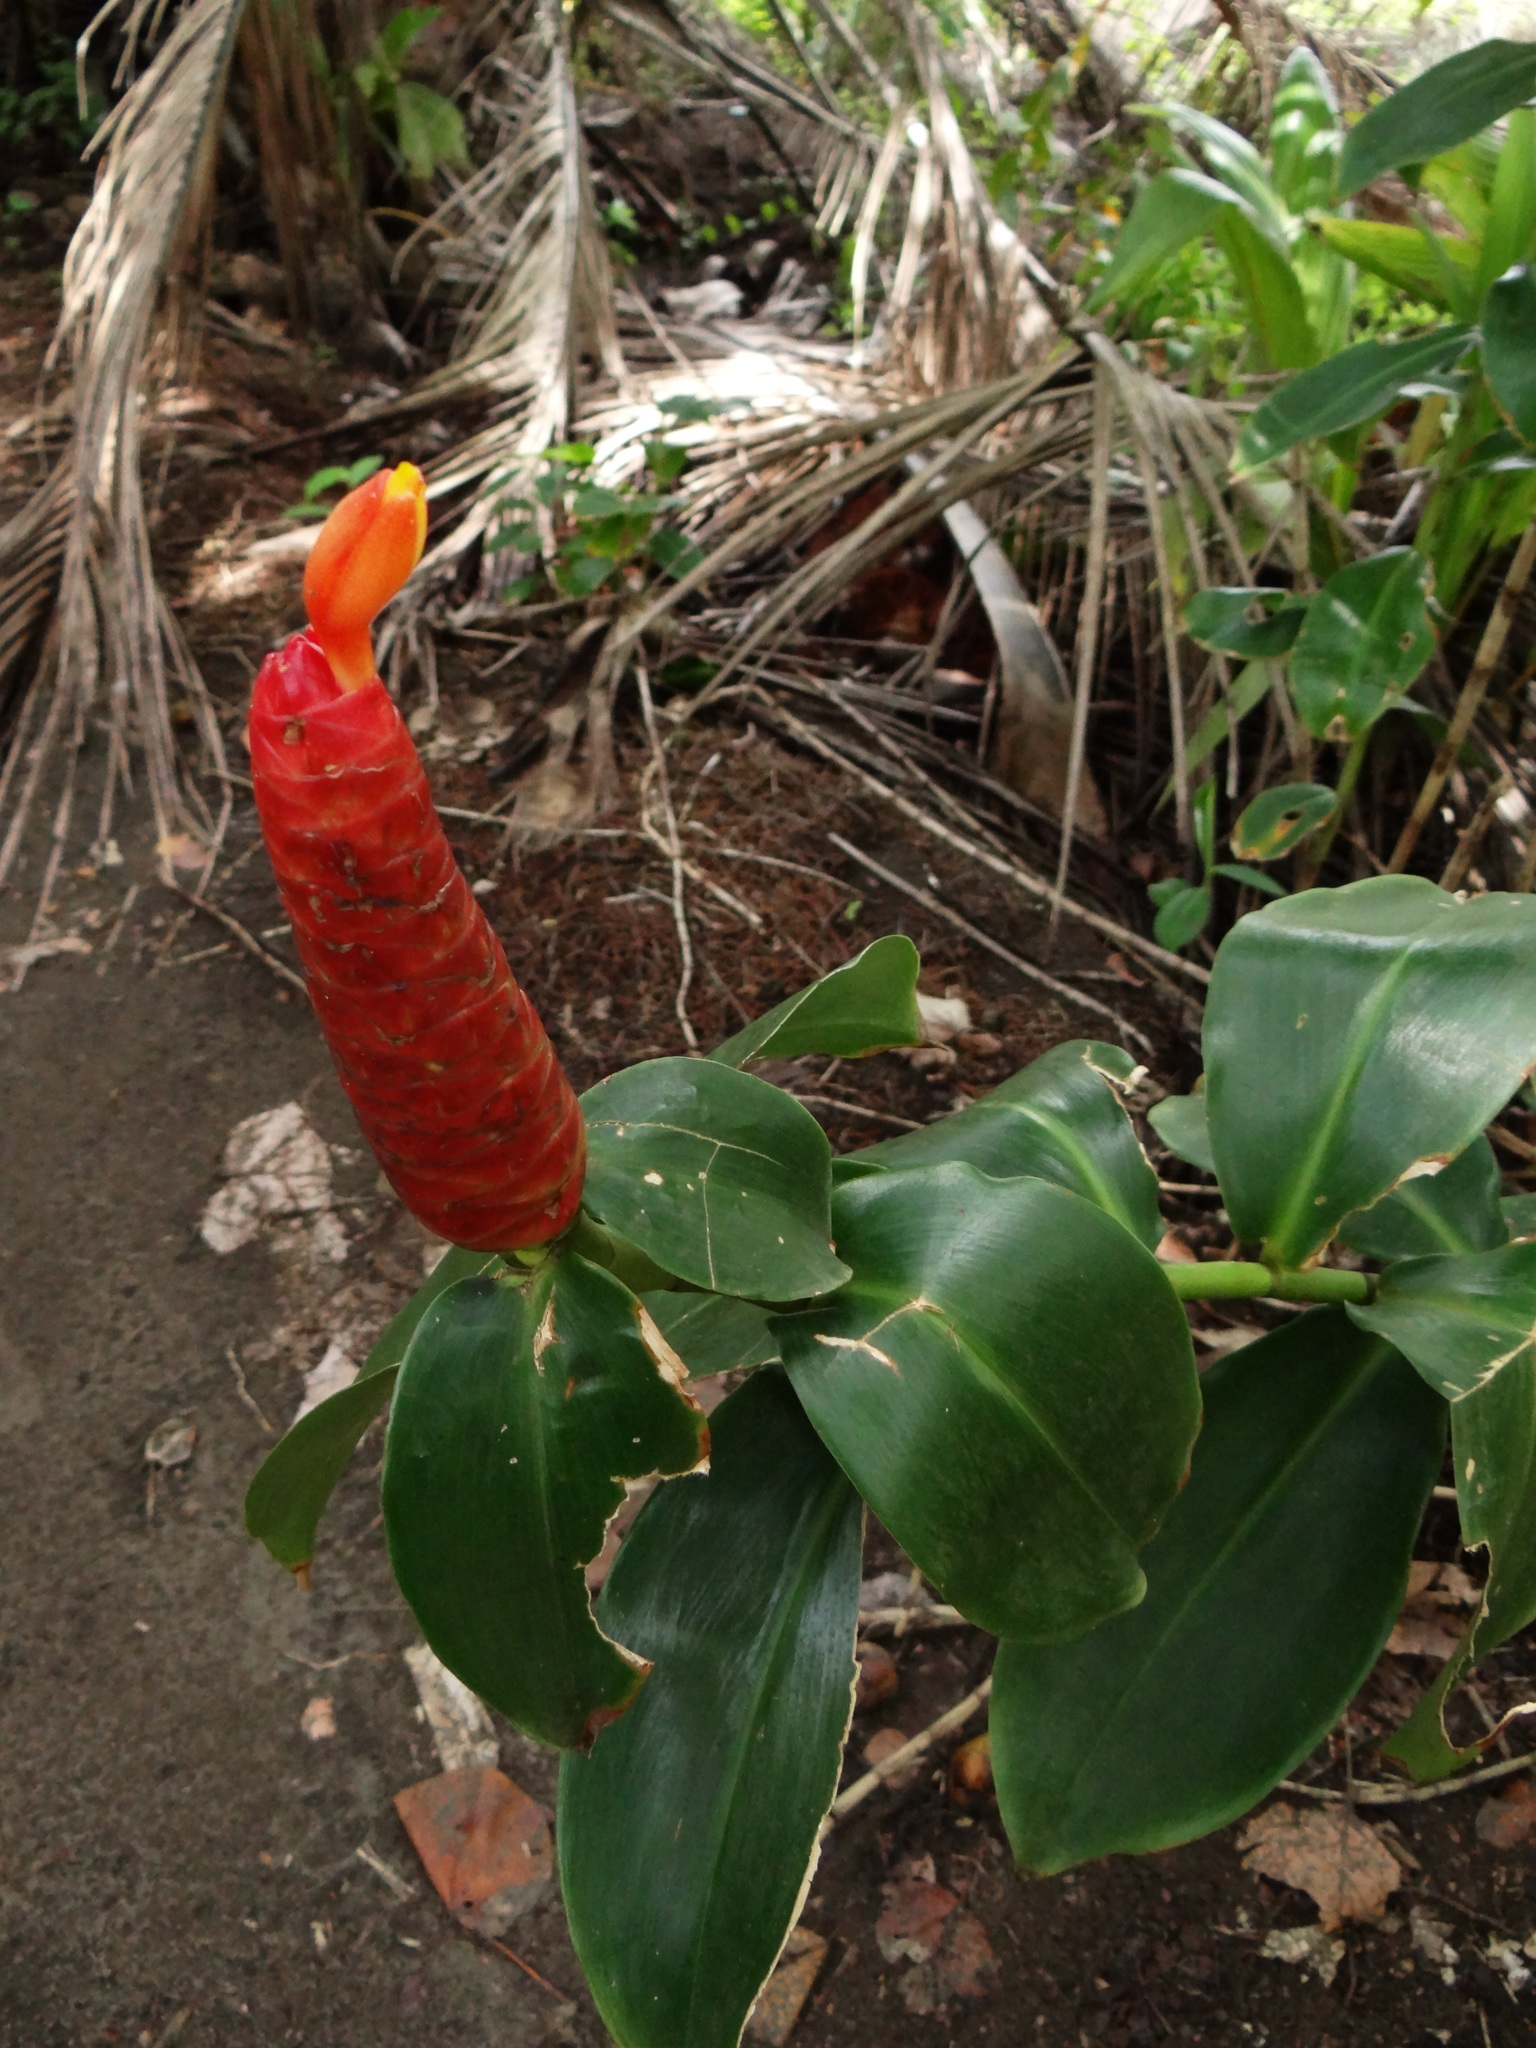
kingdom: Plantae
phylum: Tracheophyta
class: Liliopsida
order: Zingiberales
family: Costaceae
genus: Costus
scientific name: Costus woodsonii
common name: Scarlet spiral-ginger
